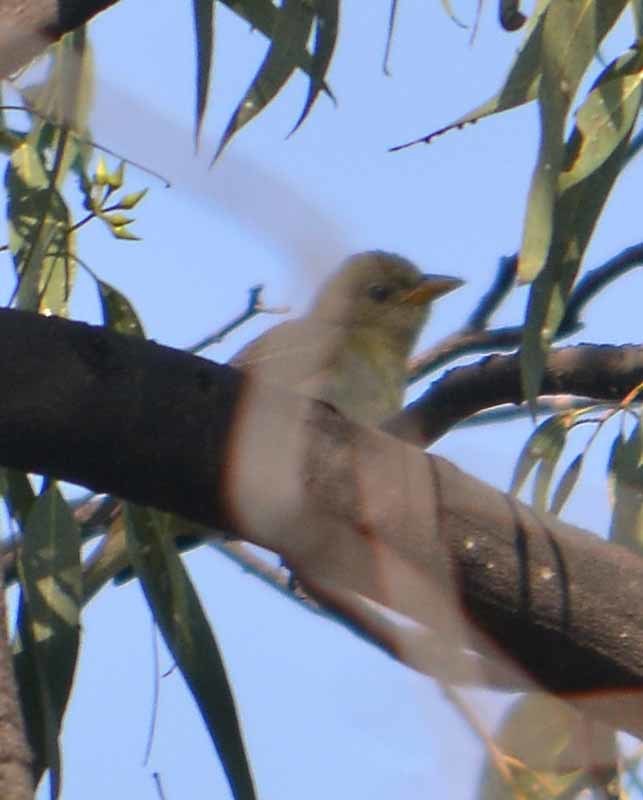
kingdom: Animalia
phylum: Chordata
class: Aves
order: Passeriformes
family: Cardinalidae
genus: Piranga
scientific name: Piranga ludoviciana
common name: Western tanager
